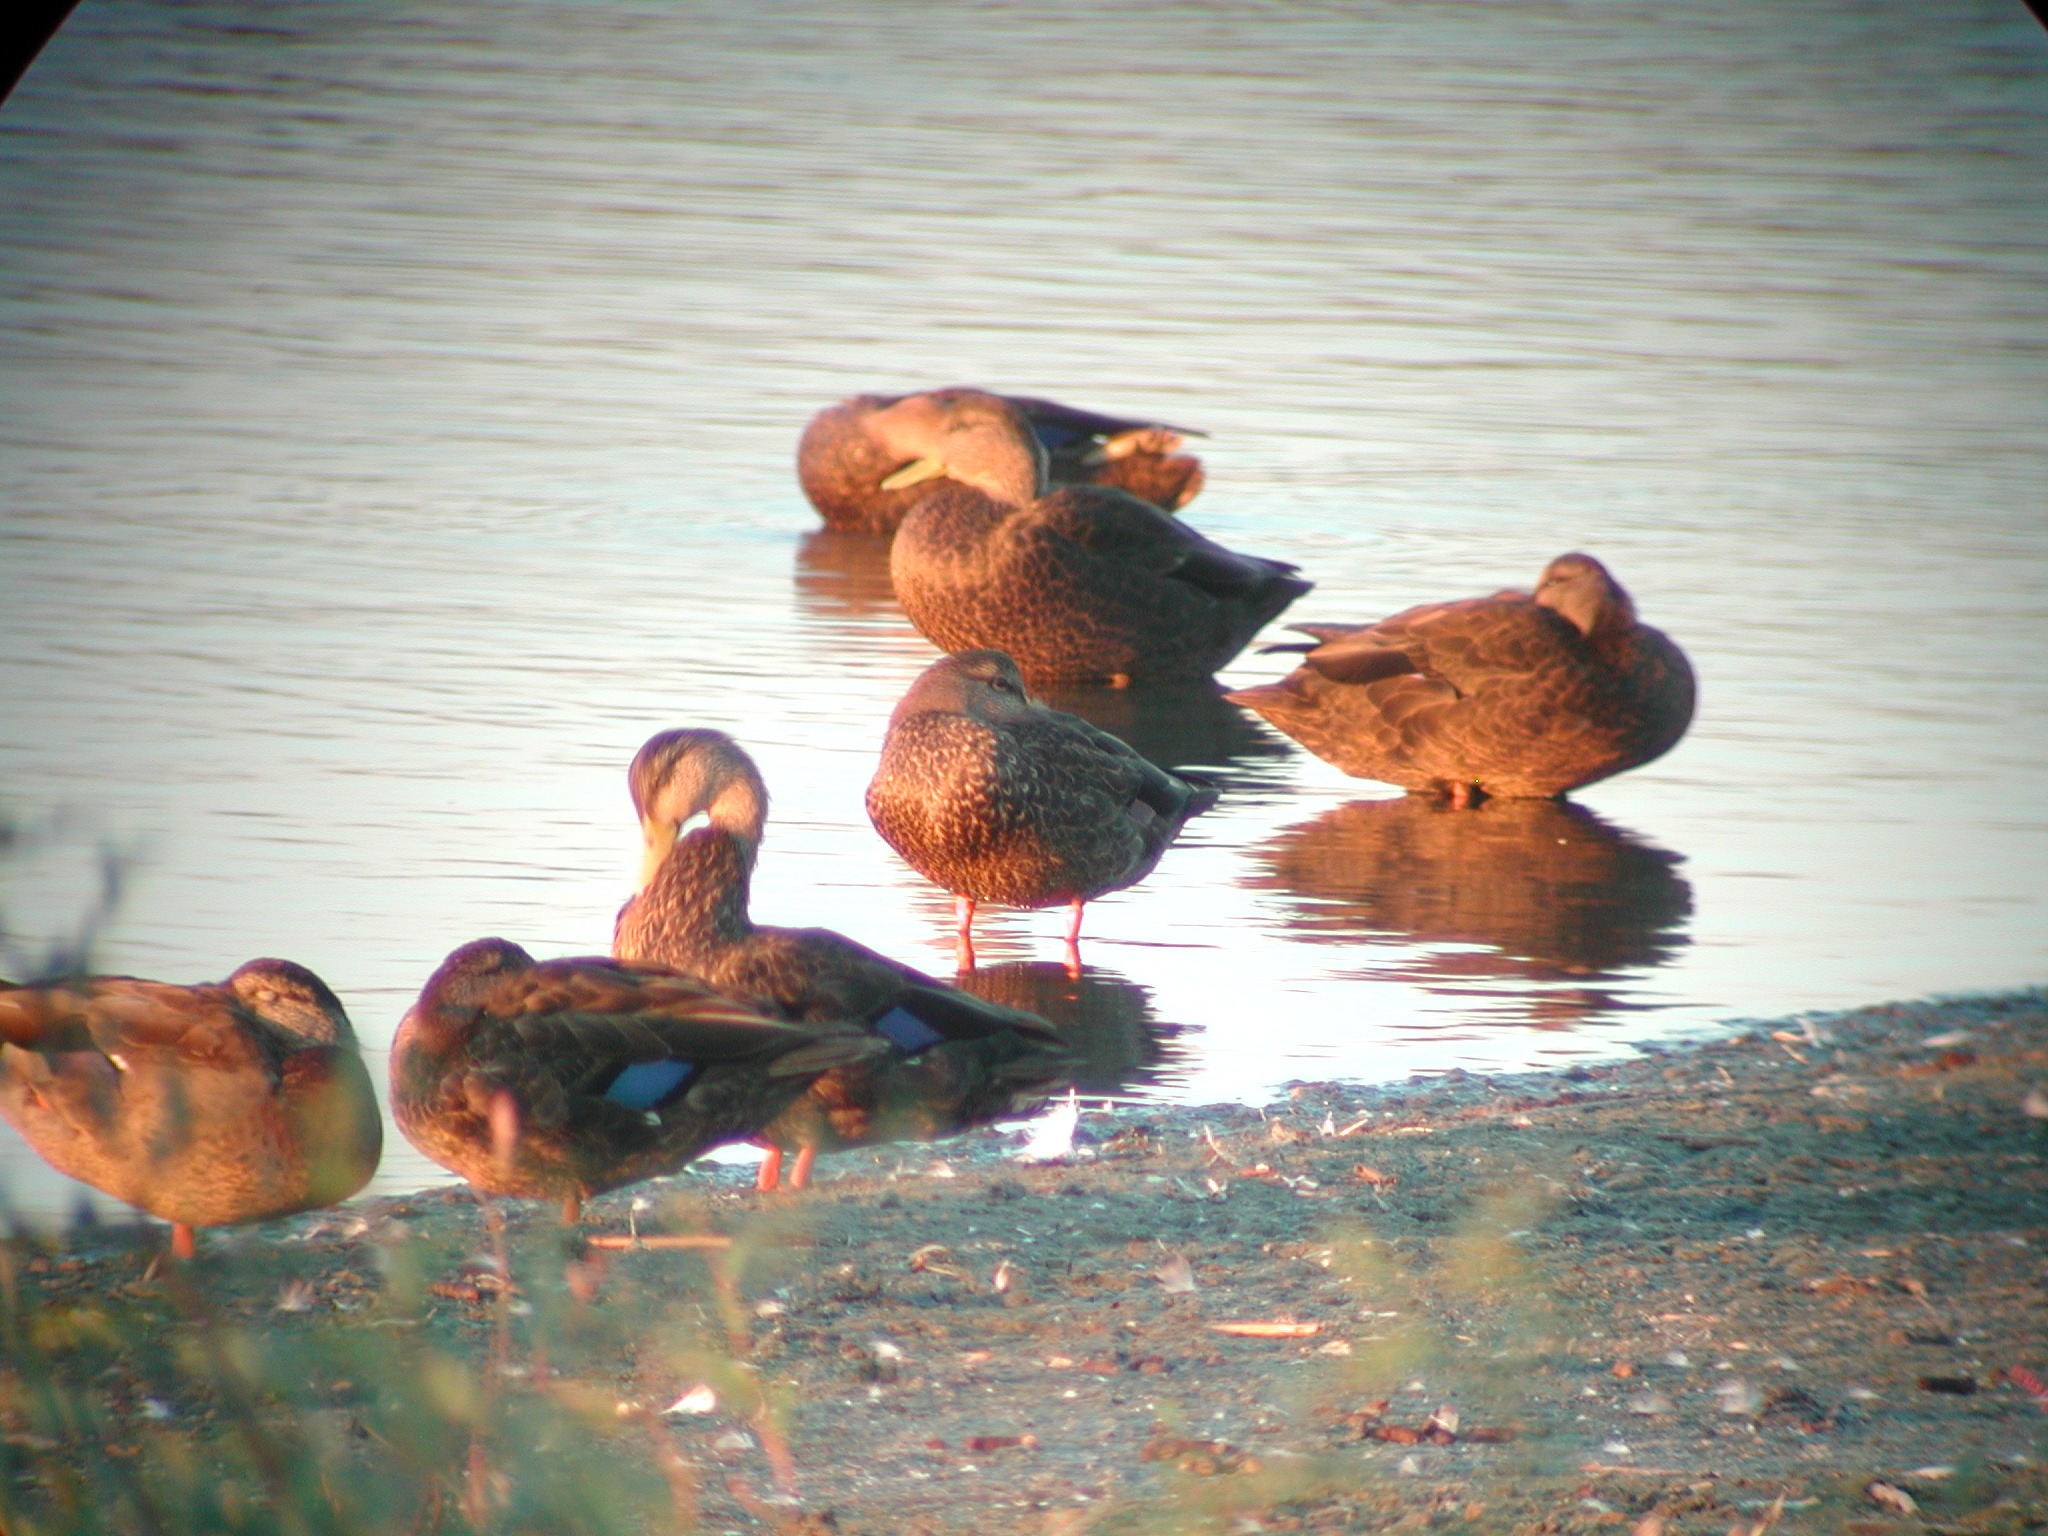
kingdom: Animalia
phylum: Chordata
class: Aves
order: Anseriformes
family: Anatidae
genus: Anas
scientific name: Anas rubripes
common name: American black duck
